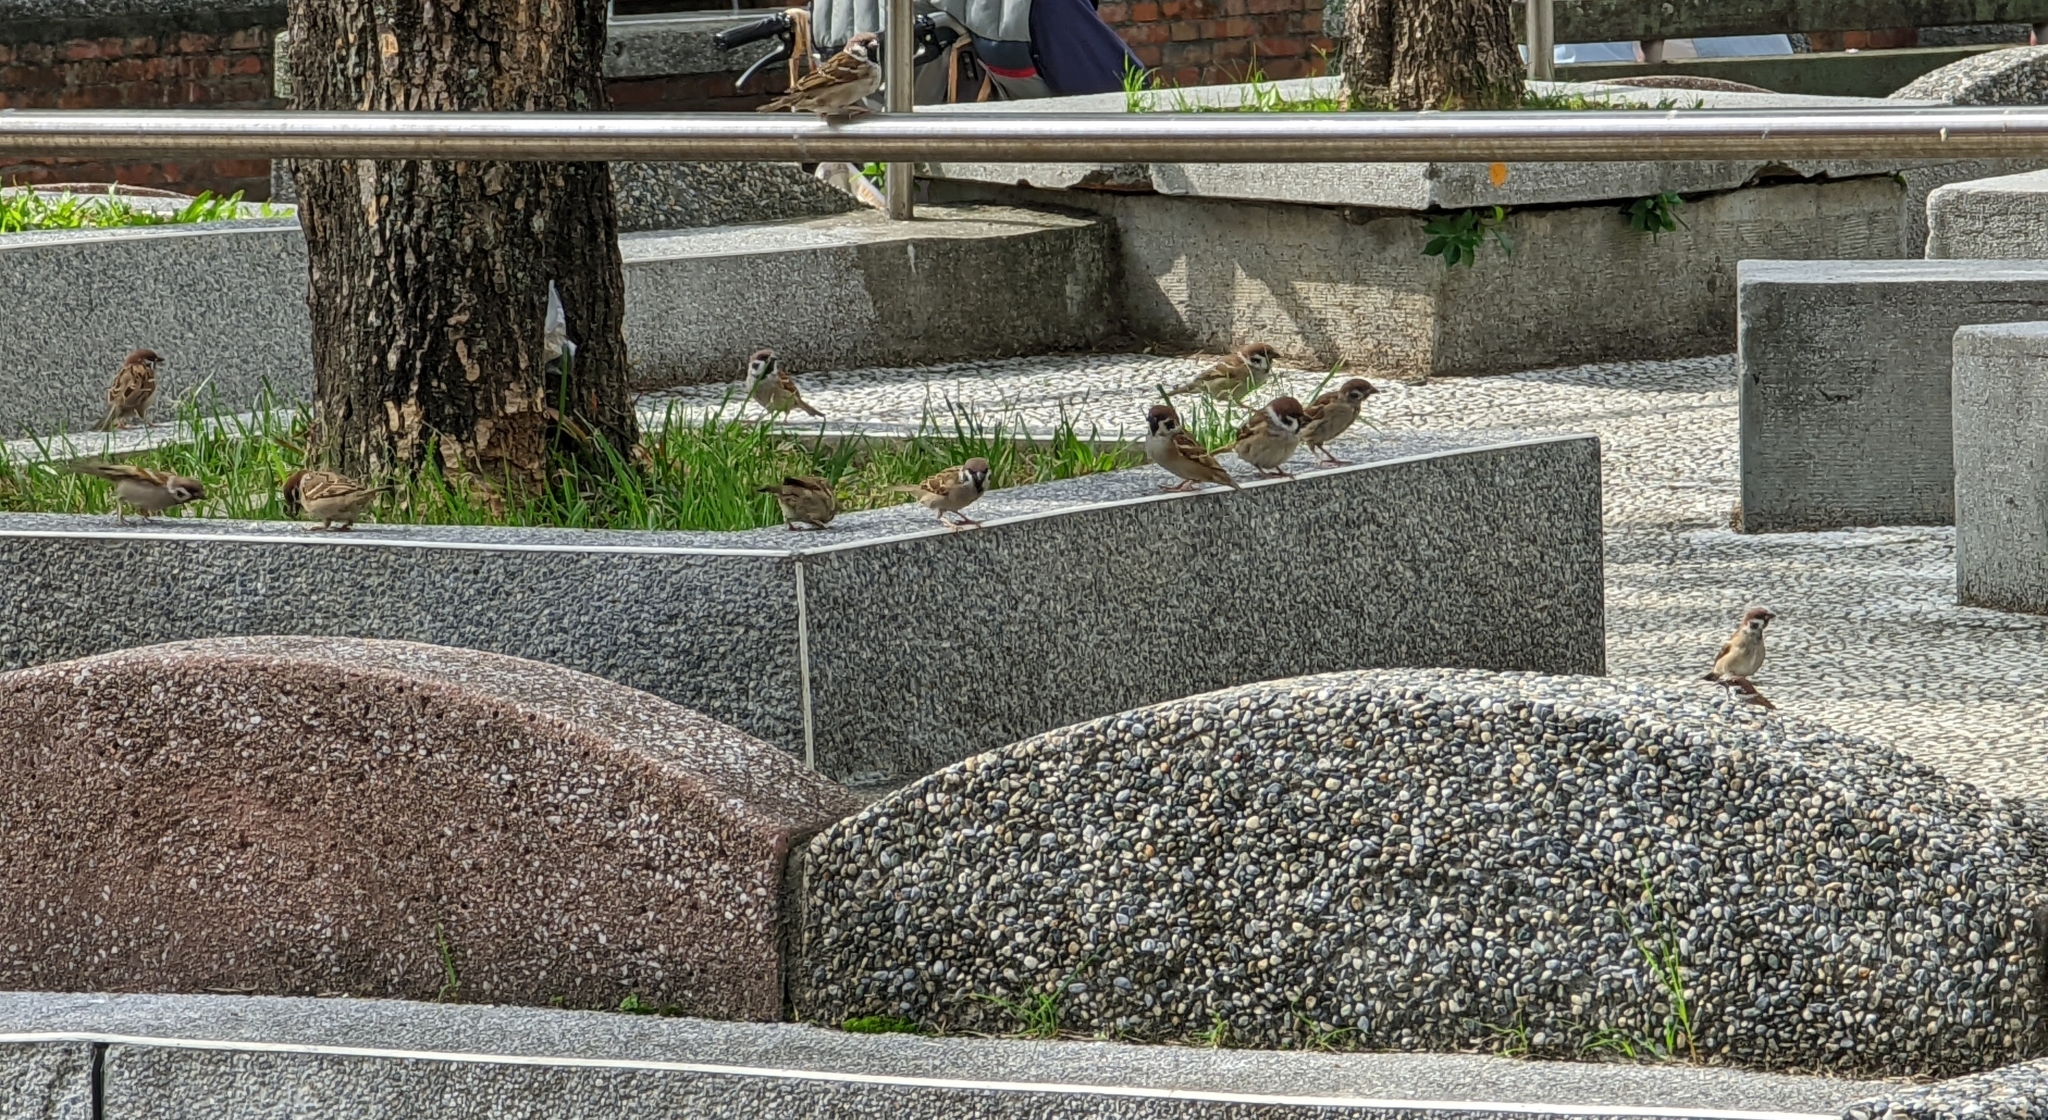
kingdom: Animalia
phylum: Chordata
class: Aves
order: Passeriformes
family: Passeridae
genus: Passer
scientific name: Passer montanus
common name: Eurasian tree sparrow
